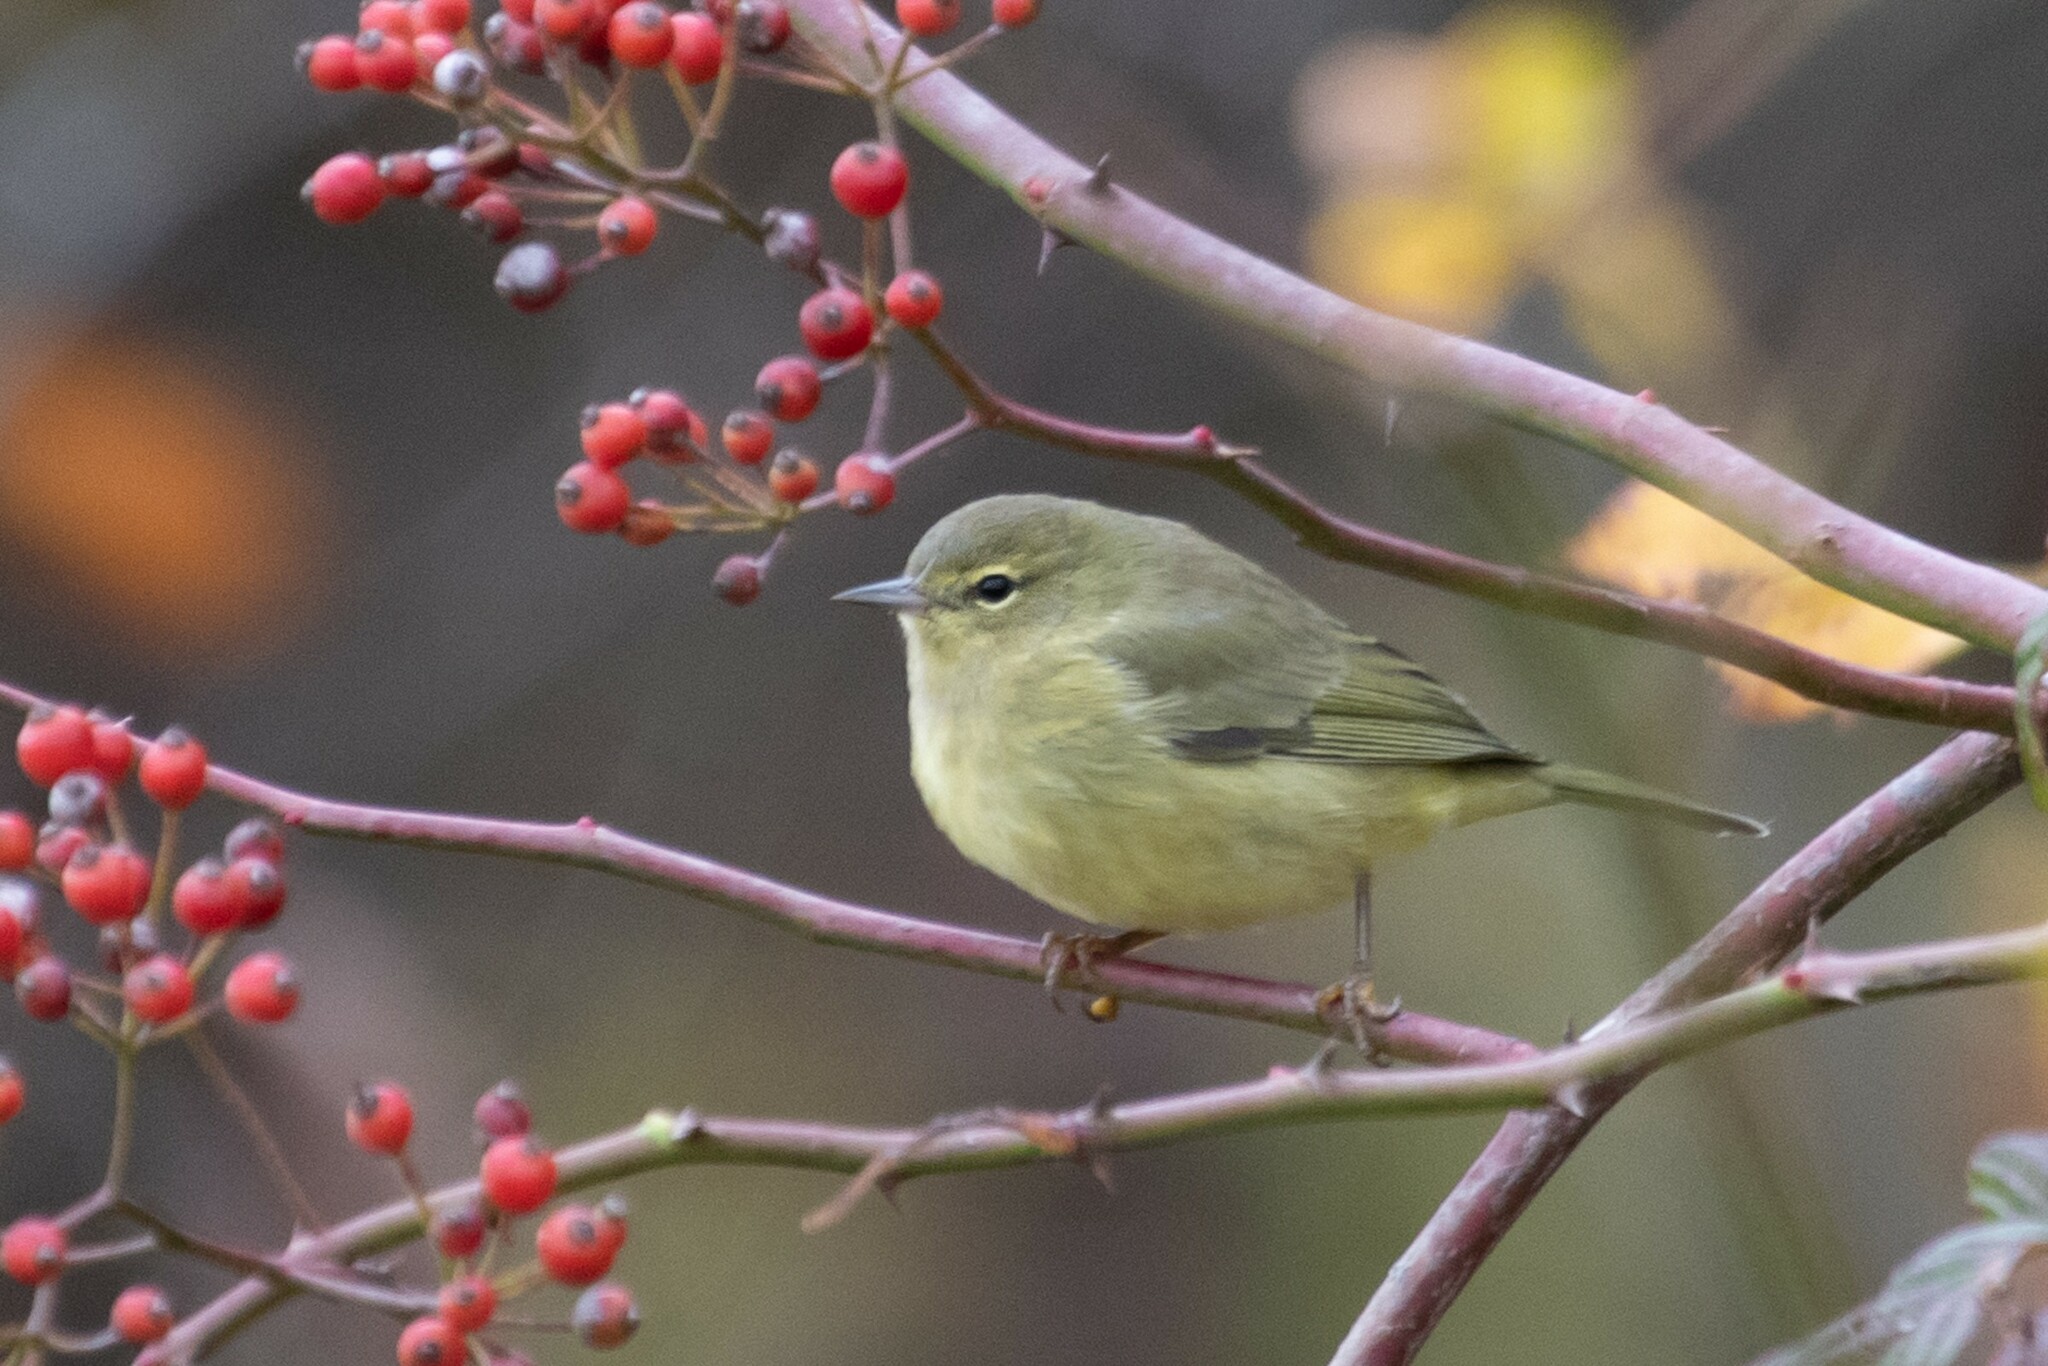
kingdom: Animalia
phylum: Chordata
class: Aves
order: Passeriformes
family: Parulidae
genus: Leiothlypis
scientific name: Leiothlypis celata
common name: Orange-crowned warbler
